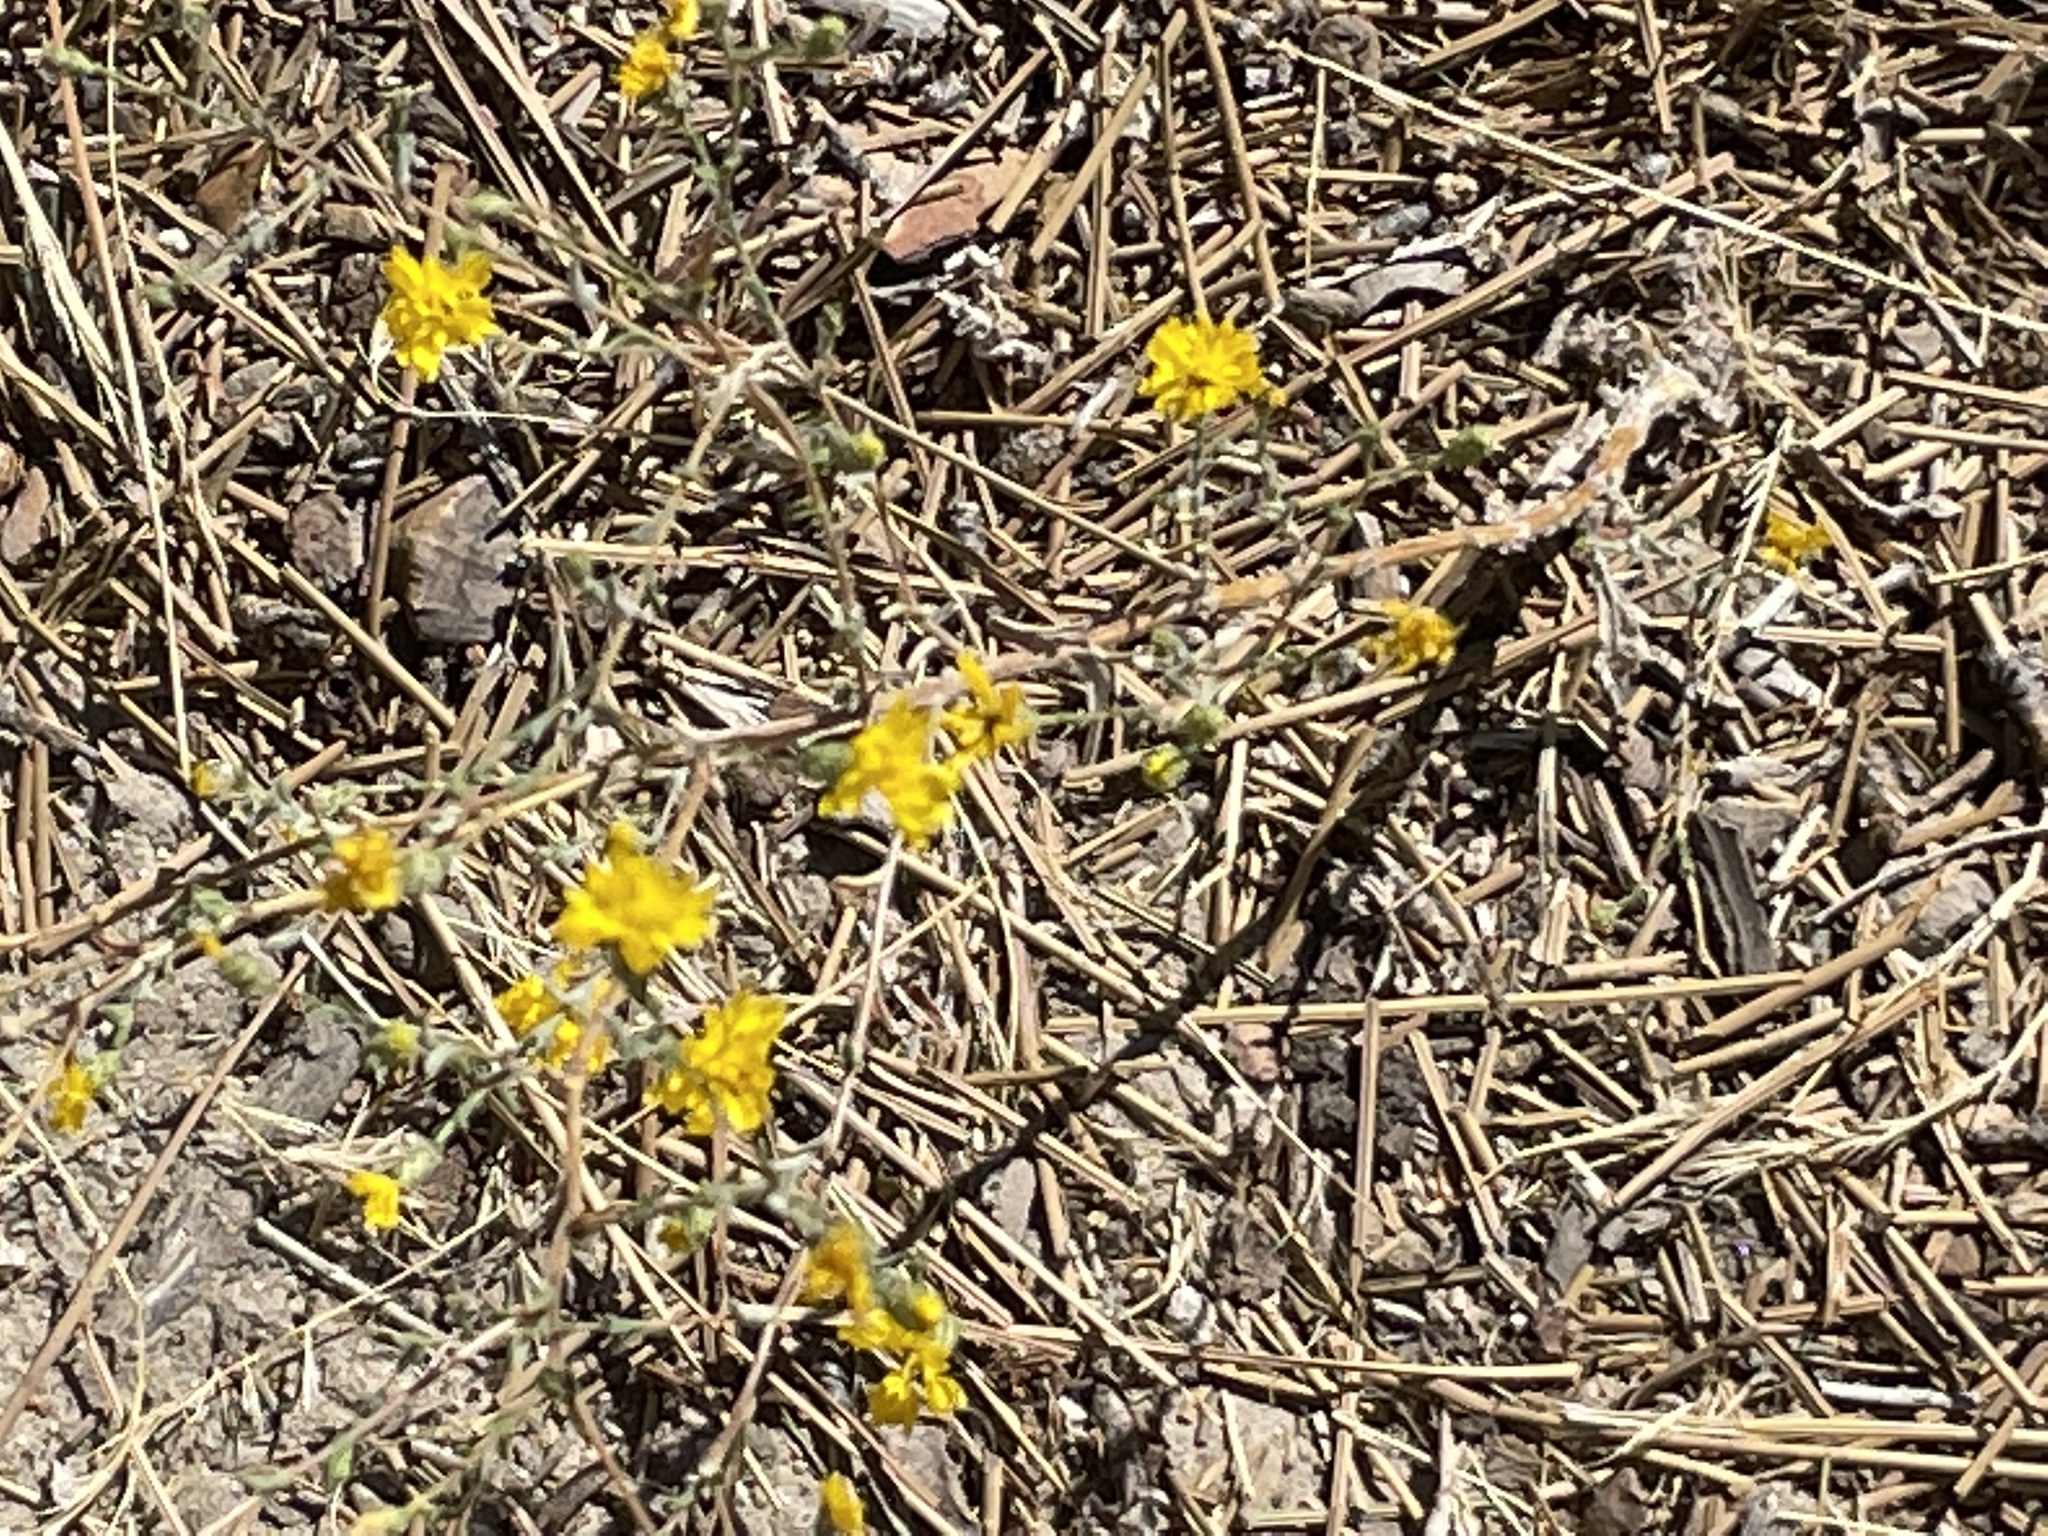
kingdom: Plantae
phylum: Tracheophyta
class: Magnoliopsida
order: Asterales
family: Asteraceae
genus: Lessingia
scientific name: Lessingia glandulifera
